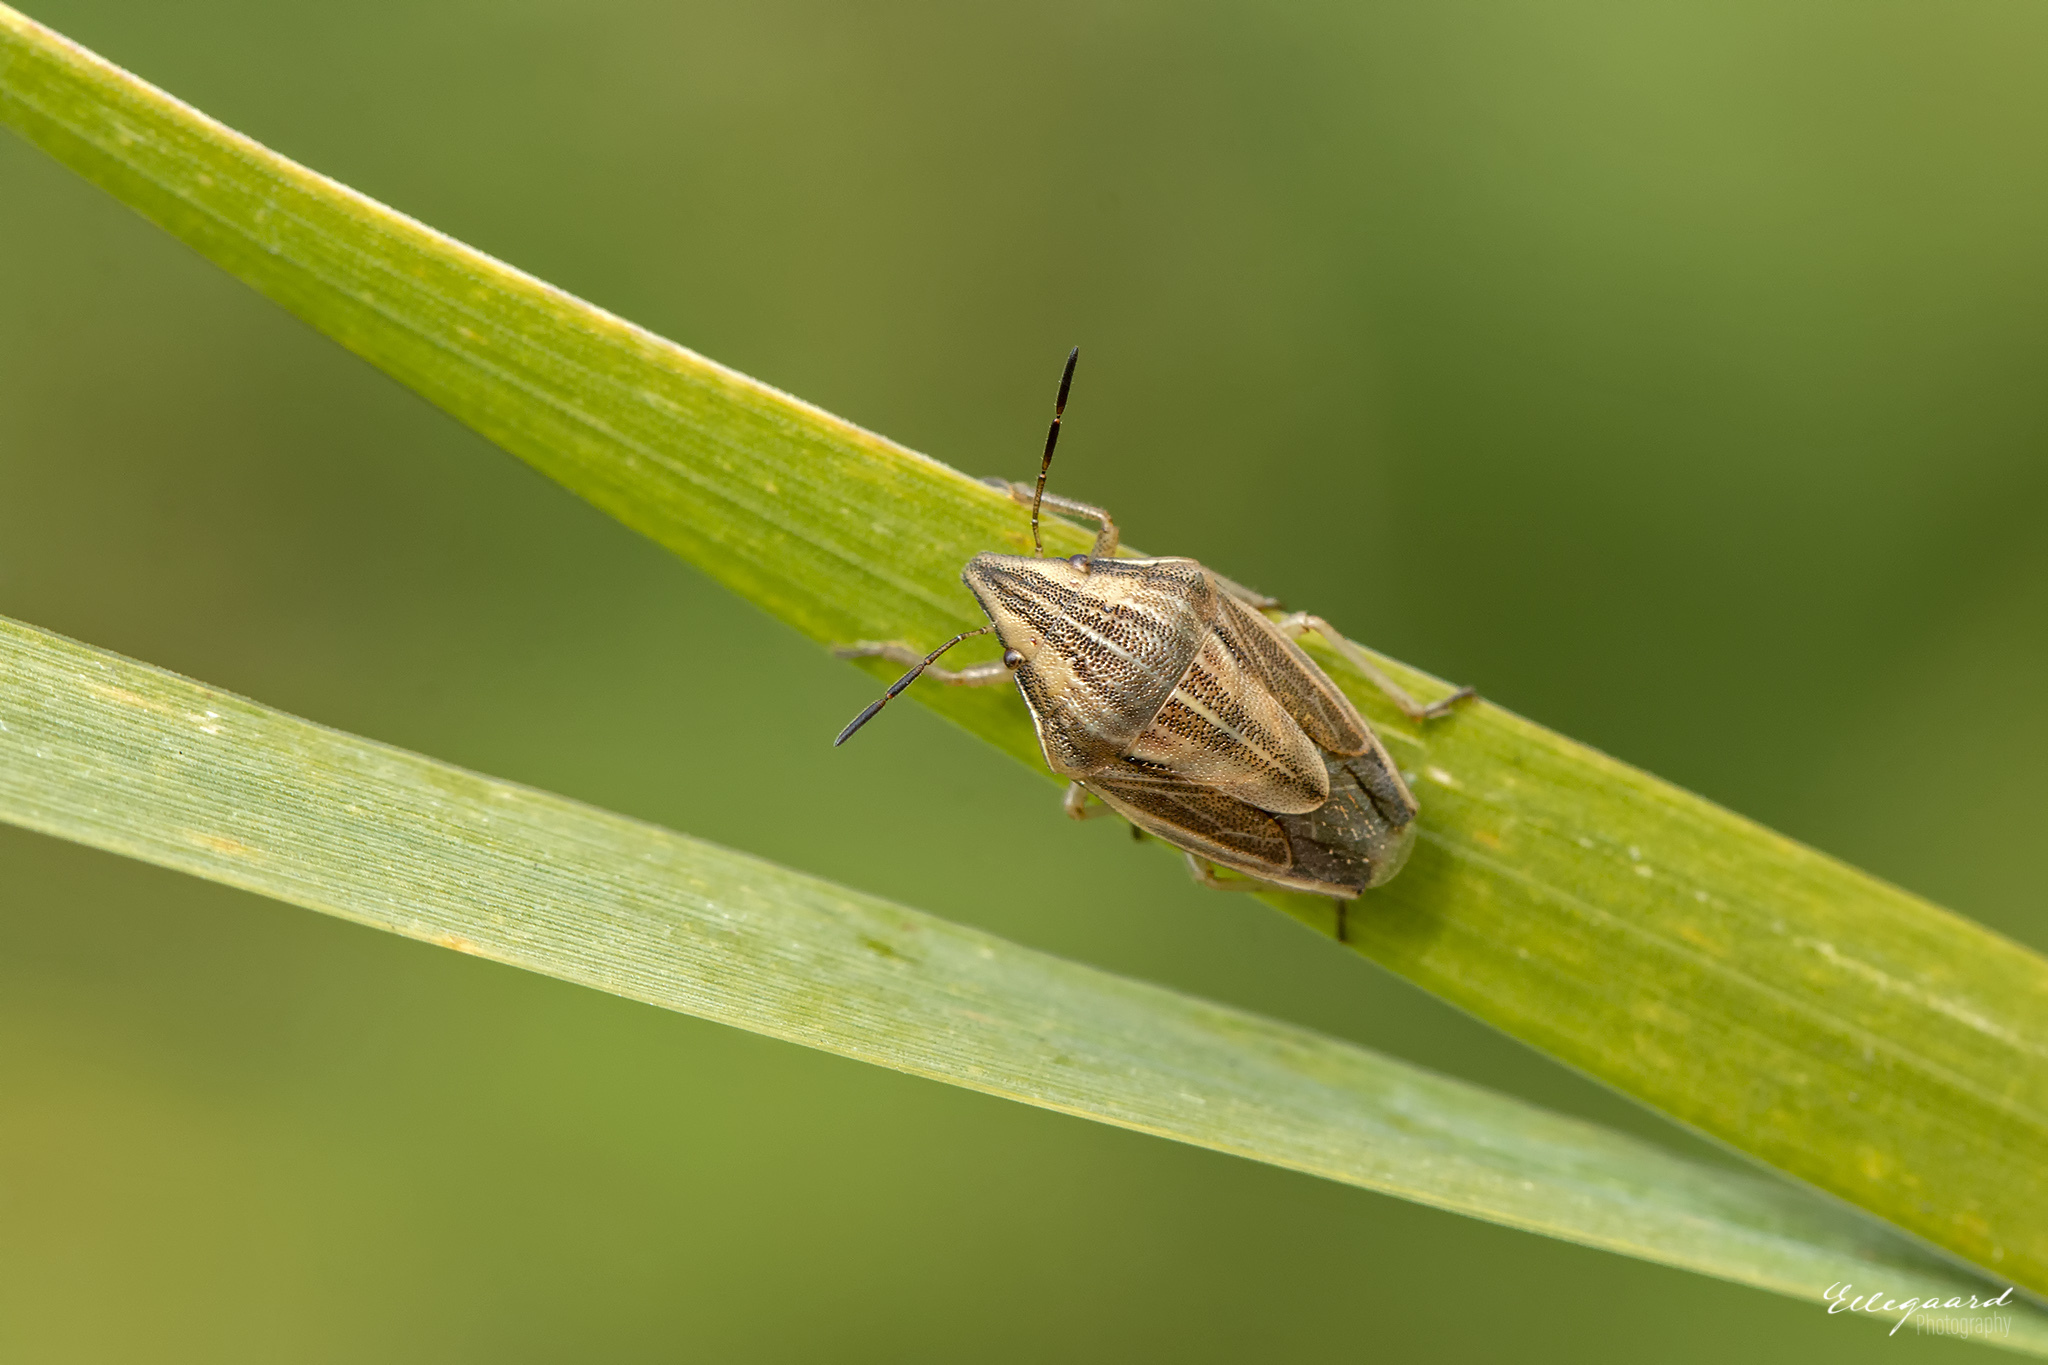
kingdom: Animalia
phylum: Arthropoda
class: Insecta
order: Hemiptera
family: Pentatomidae
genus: Aelia
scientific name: Aelia acuminata
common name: Bishop's mitre
